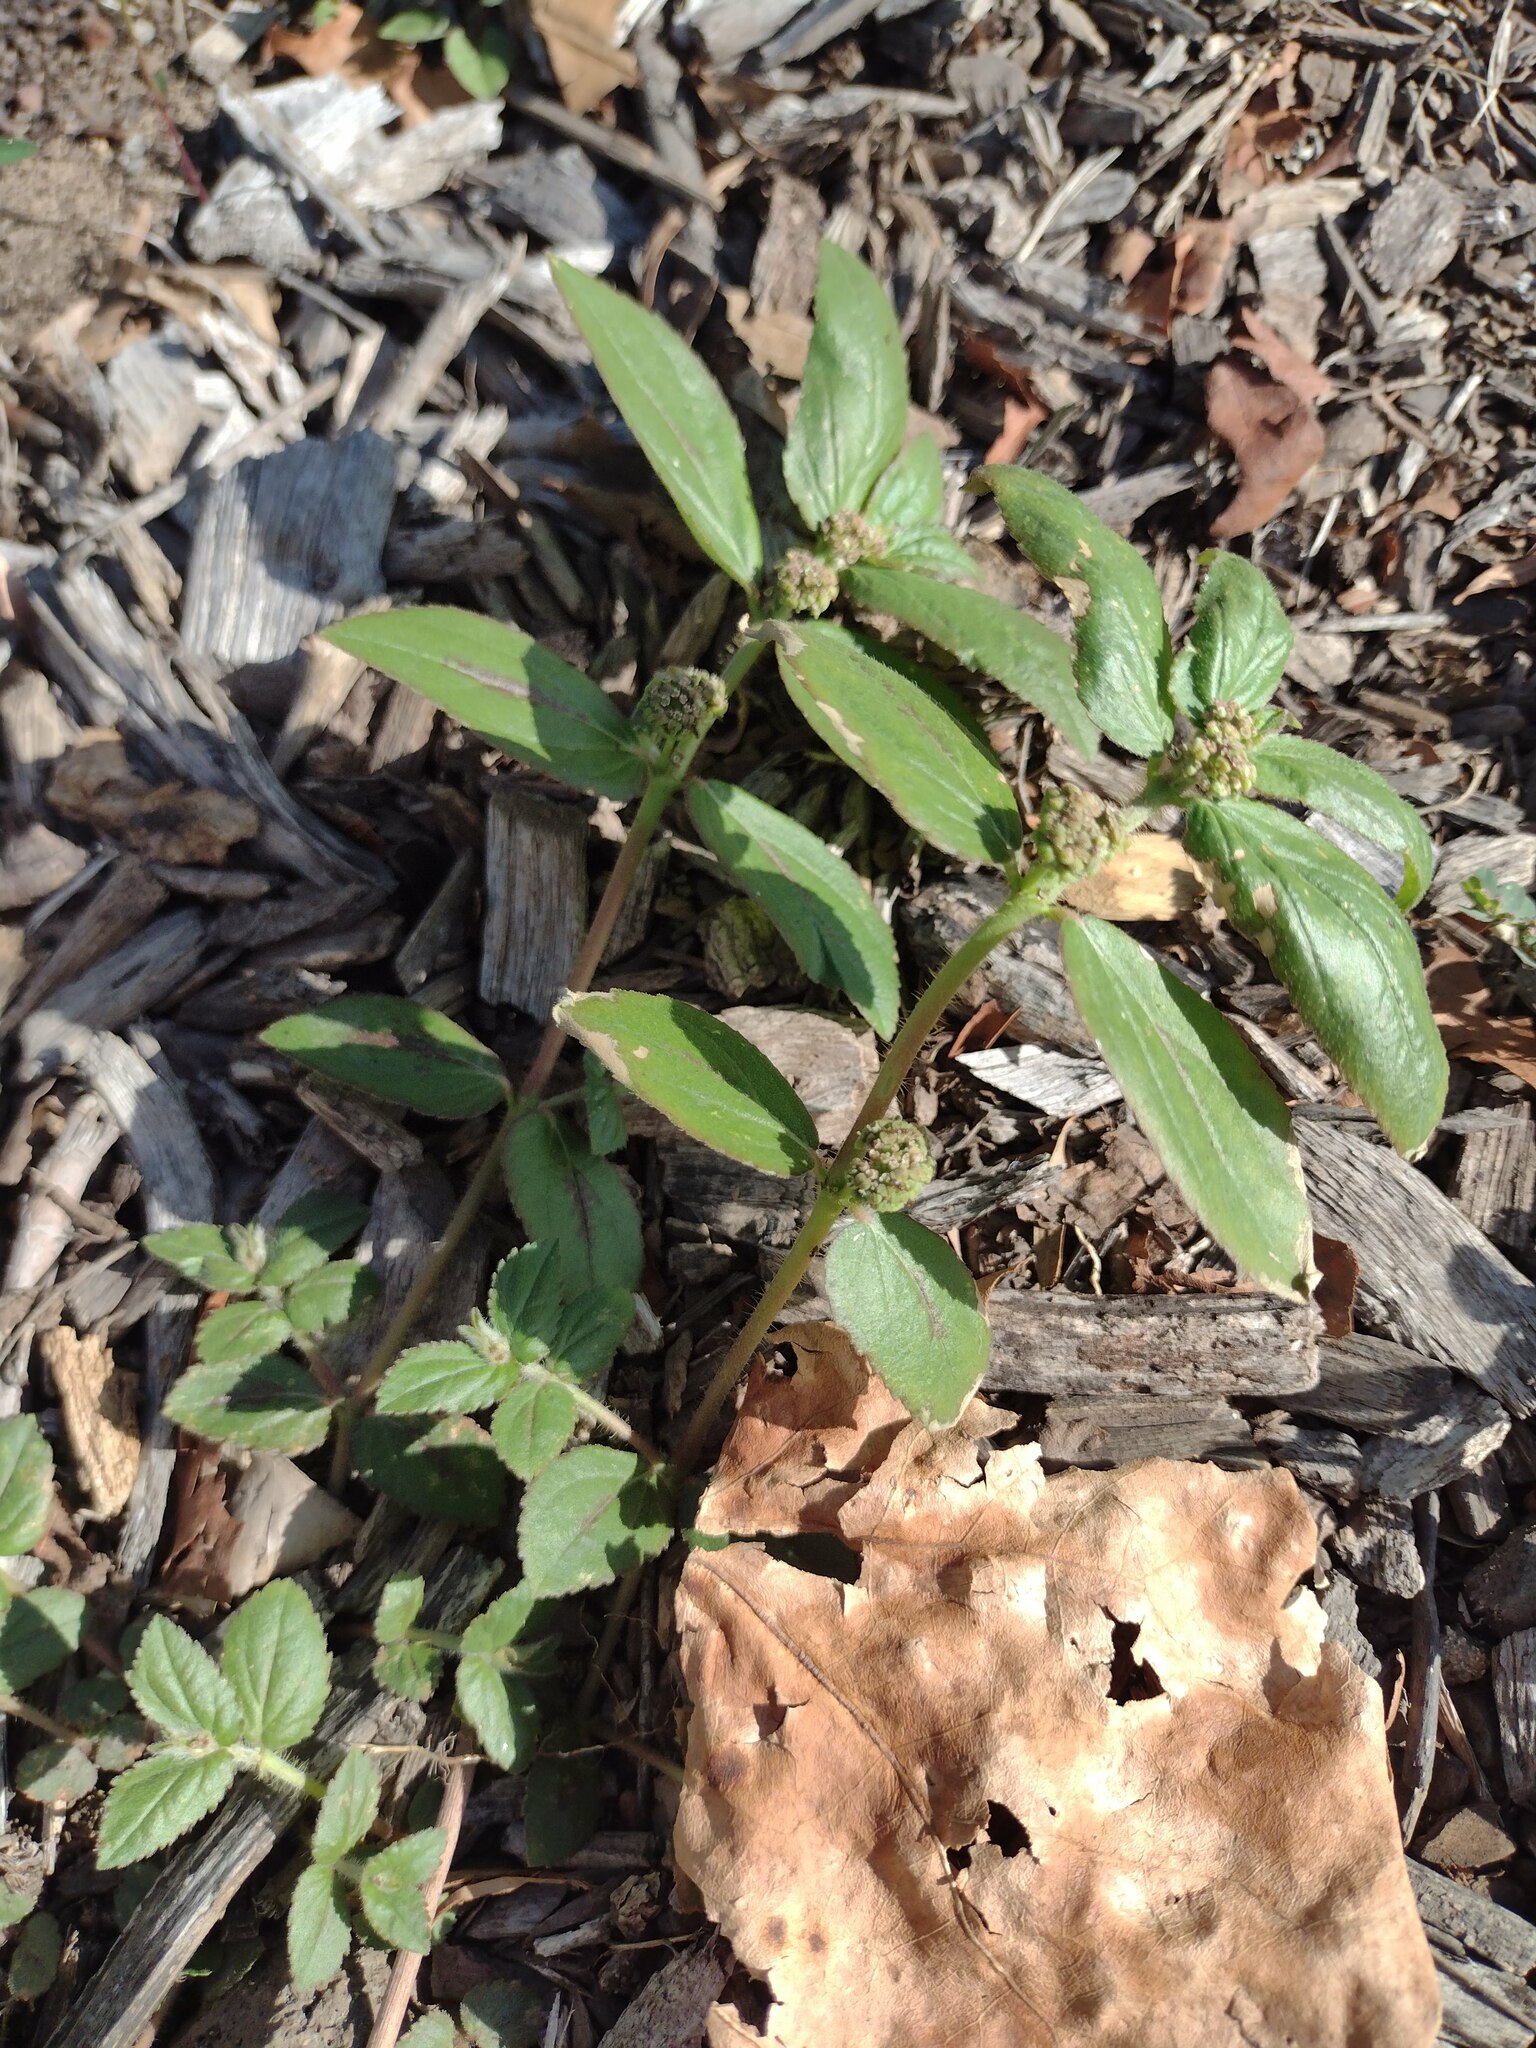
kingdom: Plantae
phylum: Tracheophyta
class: Magnoliopsida
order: Malpighiales
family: Euphorbiaceae
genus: Euphorbia
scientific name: Euphorbia hirta
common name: Pillpod sandmat
